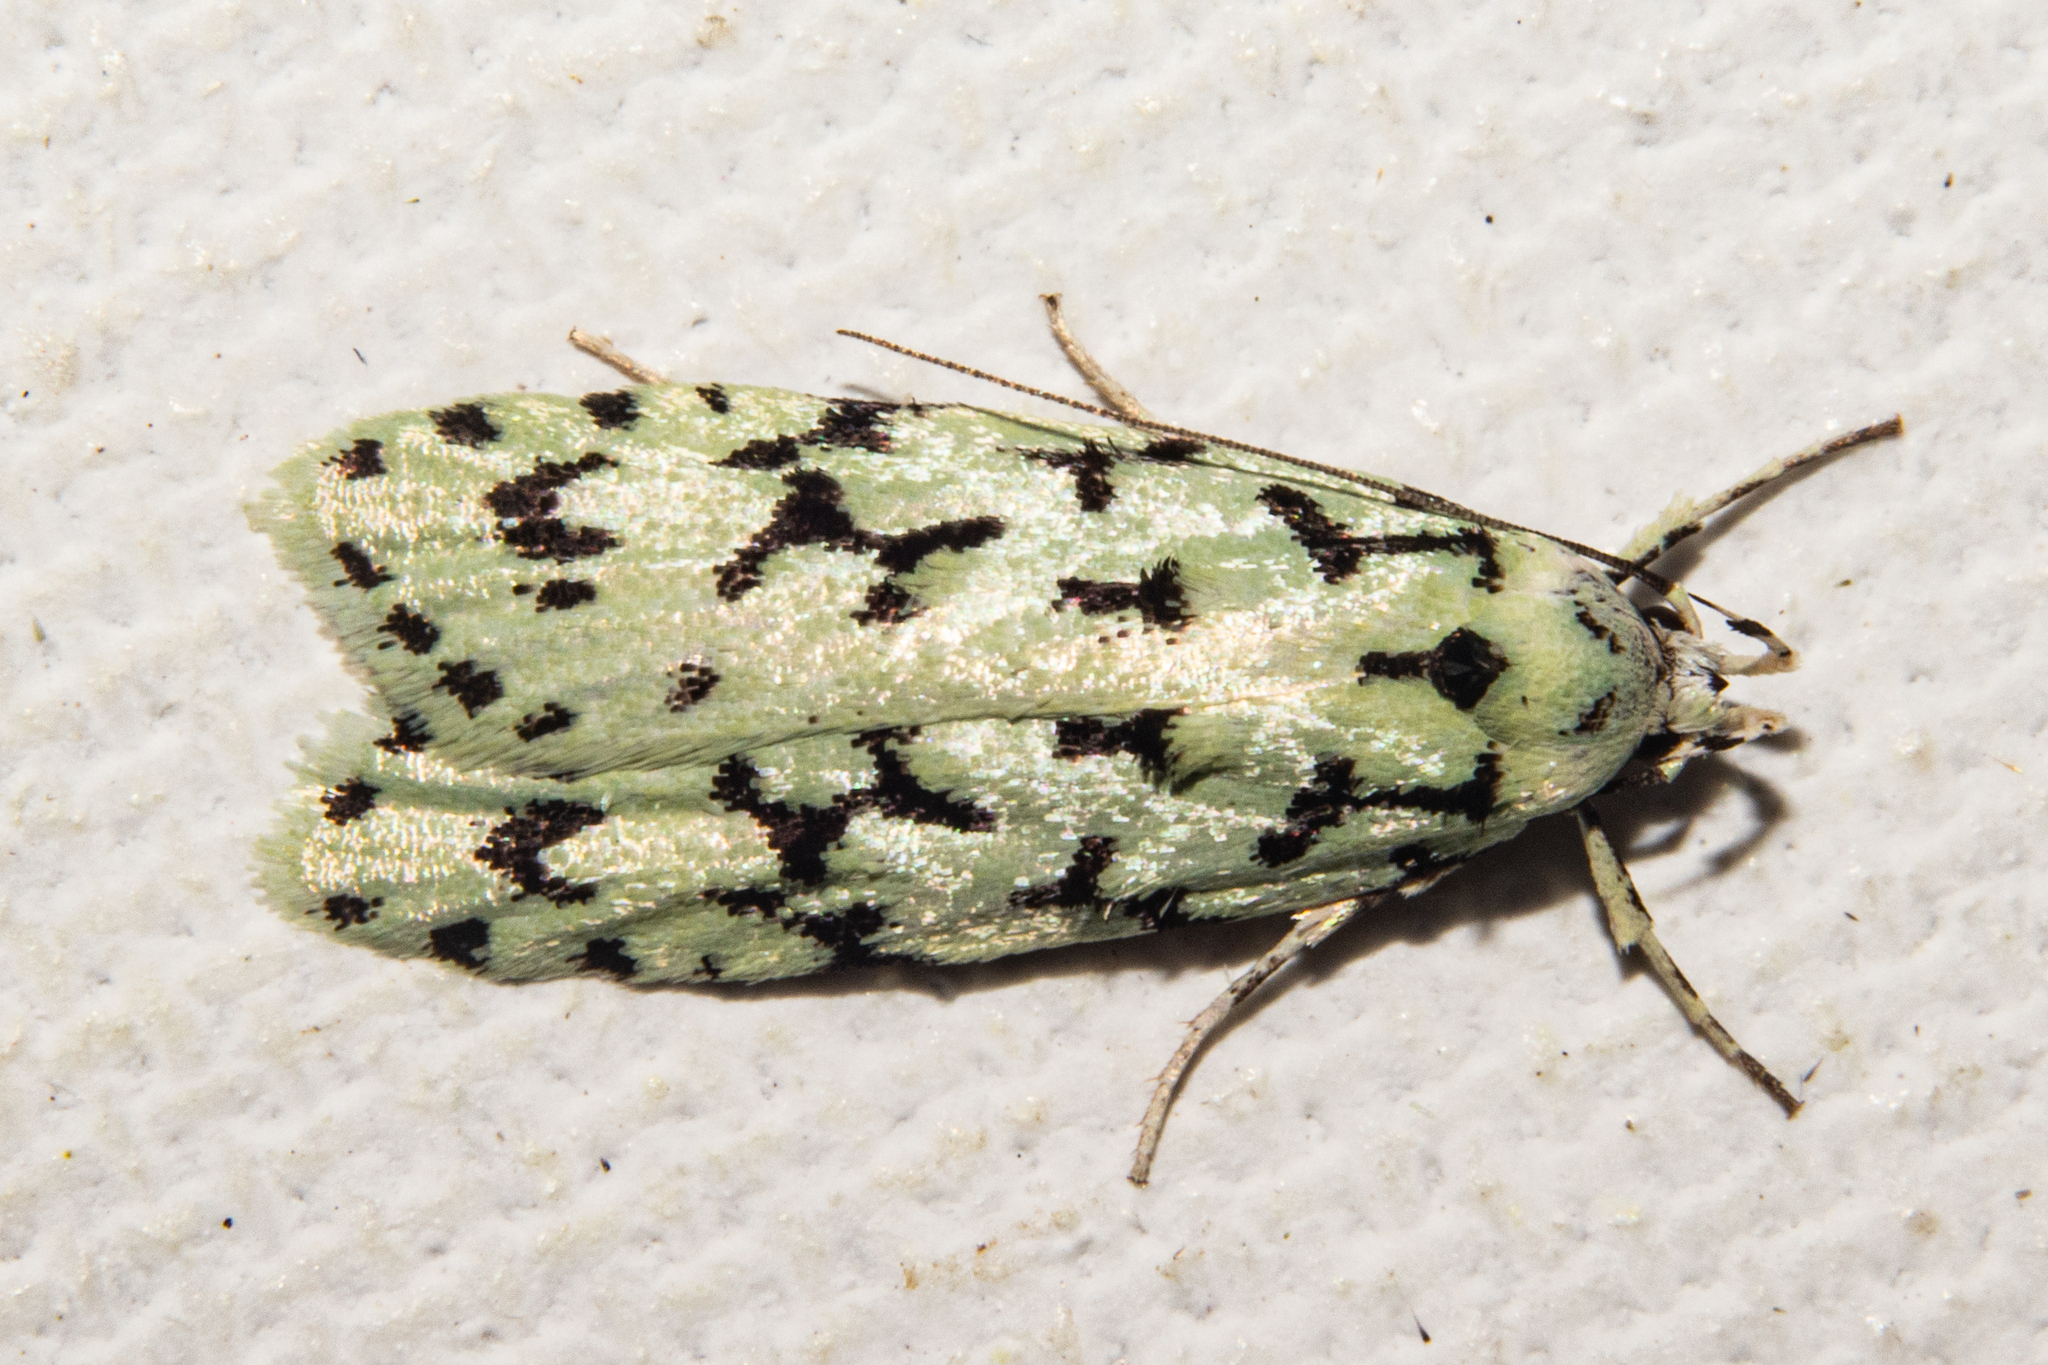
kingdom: Animalia
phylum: Arthropoda
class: Insecta
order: Lepidoptera
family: Oecophoridae
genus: Izatha
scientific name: Izatha huttoni
